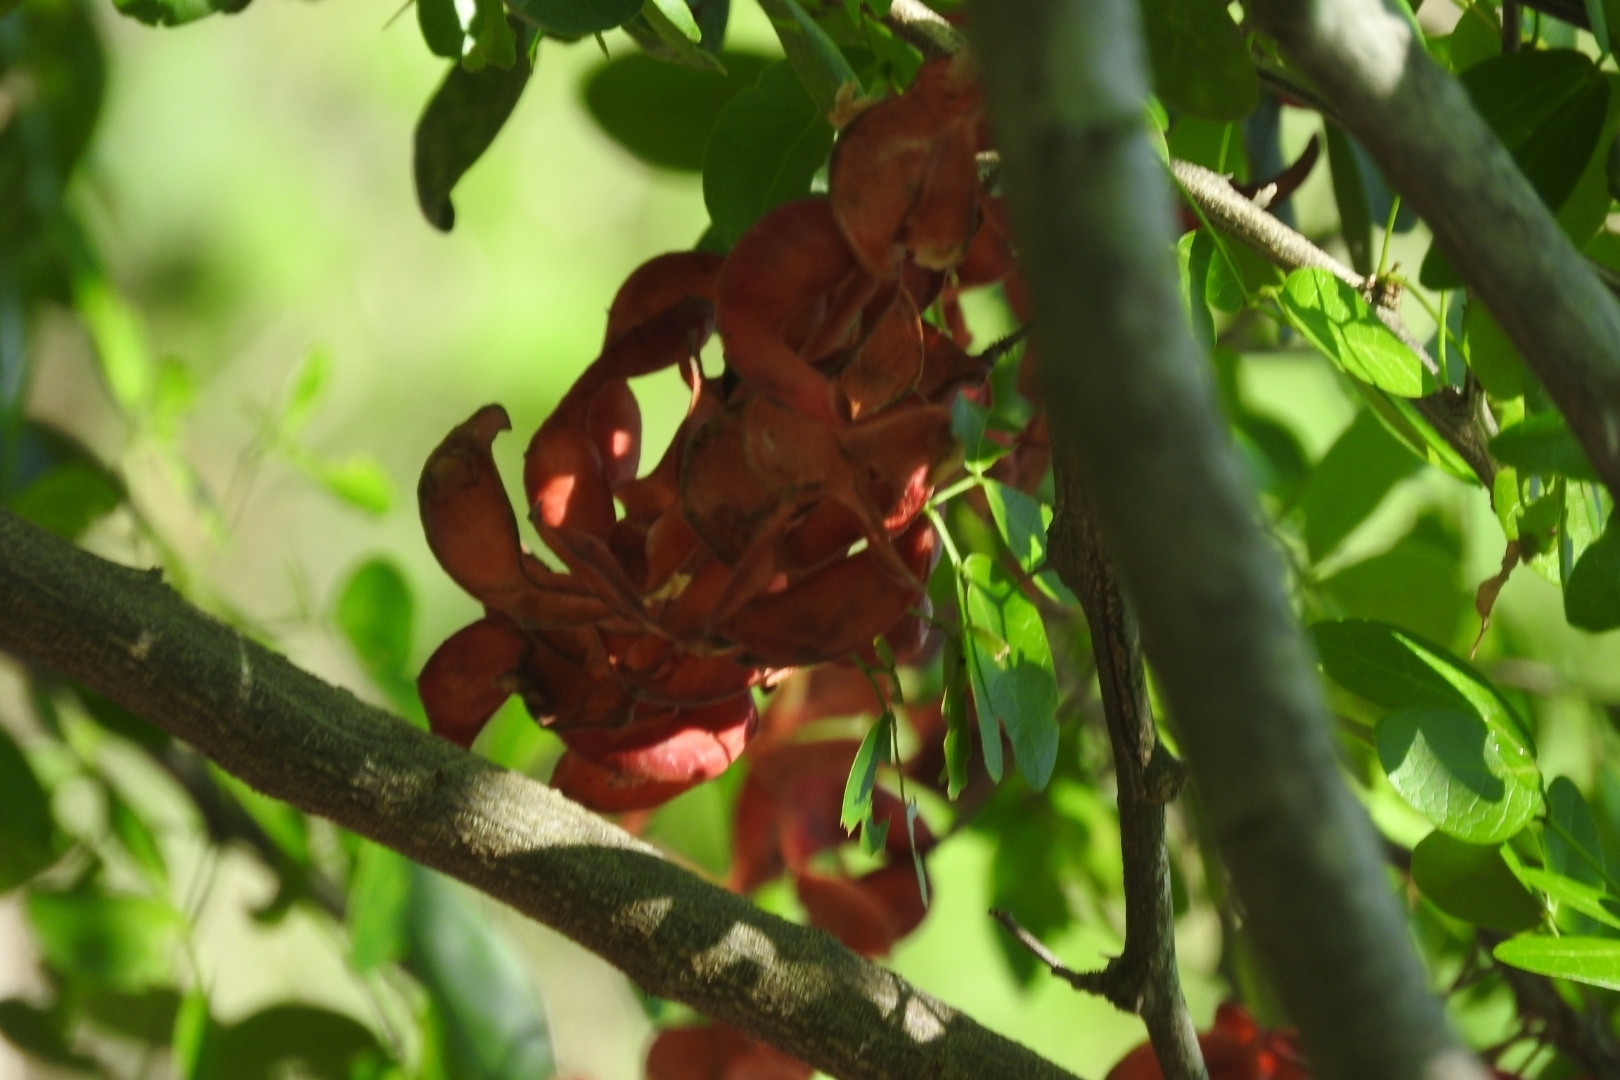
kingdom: Plantae
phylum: Tracheophyta
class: Magnoliopsida
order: Fabales
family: Fabaceae
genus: Pithecellobium
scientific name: Pithecellobium dulce
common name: Monkeypod
